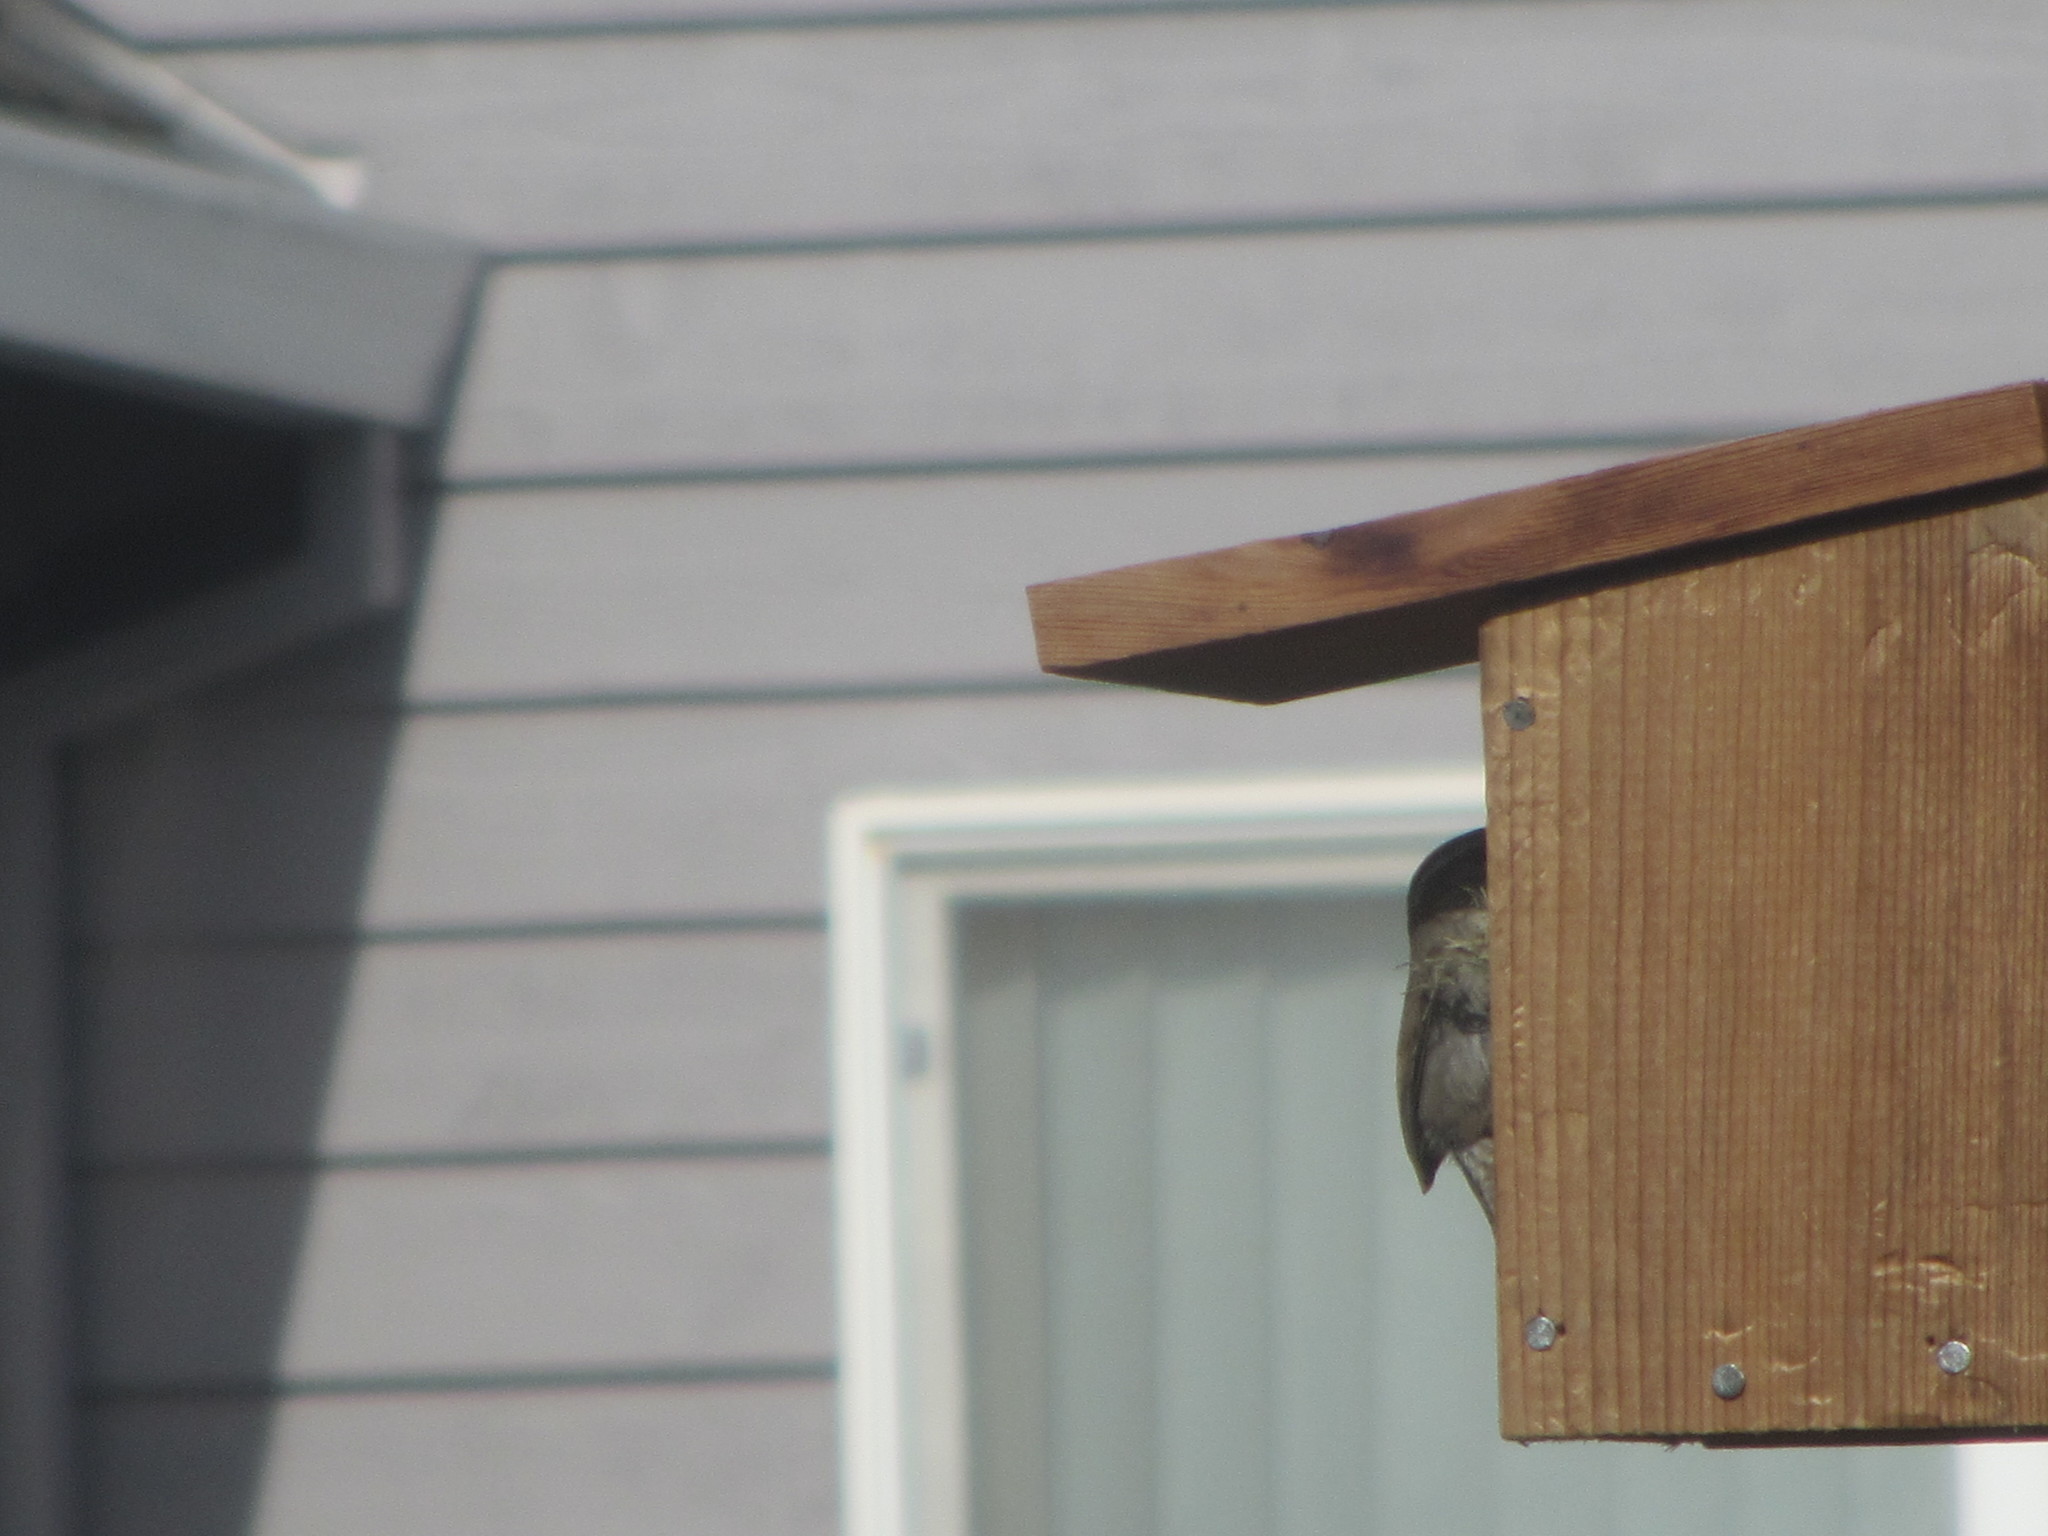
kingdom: Animalia
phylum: Chordata
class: Aves
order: Passeriformes
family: Troglodytidae
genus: Thryomanes
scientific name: Thryomanes bewickii
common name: Bewick's wren
